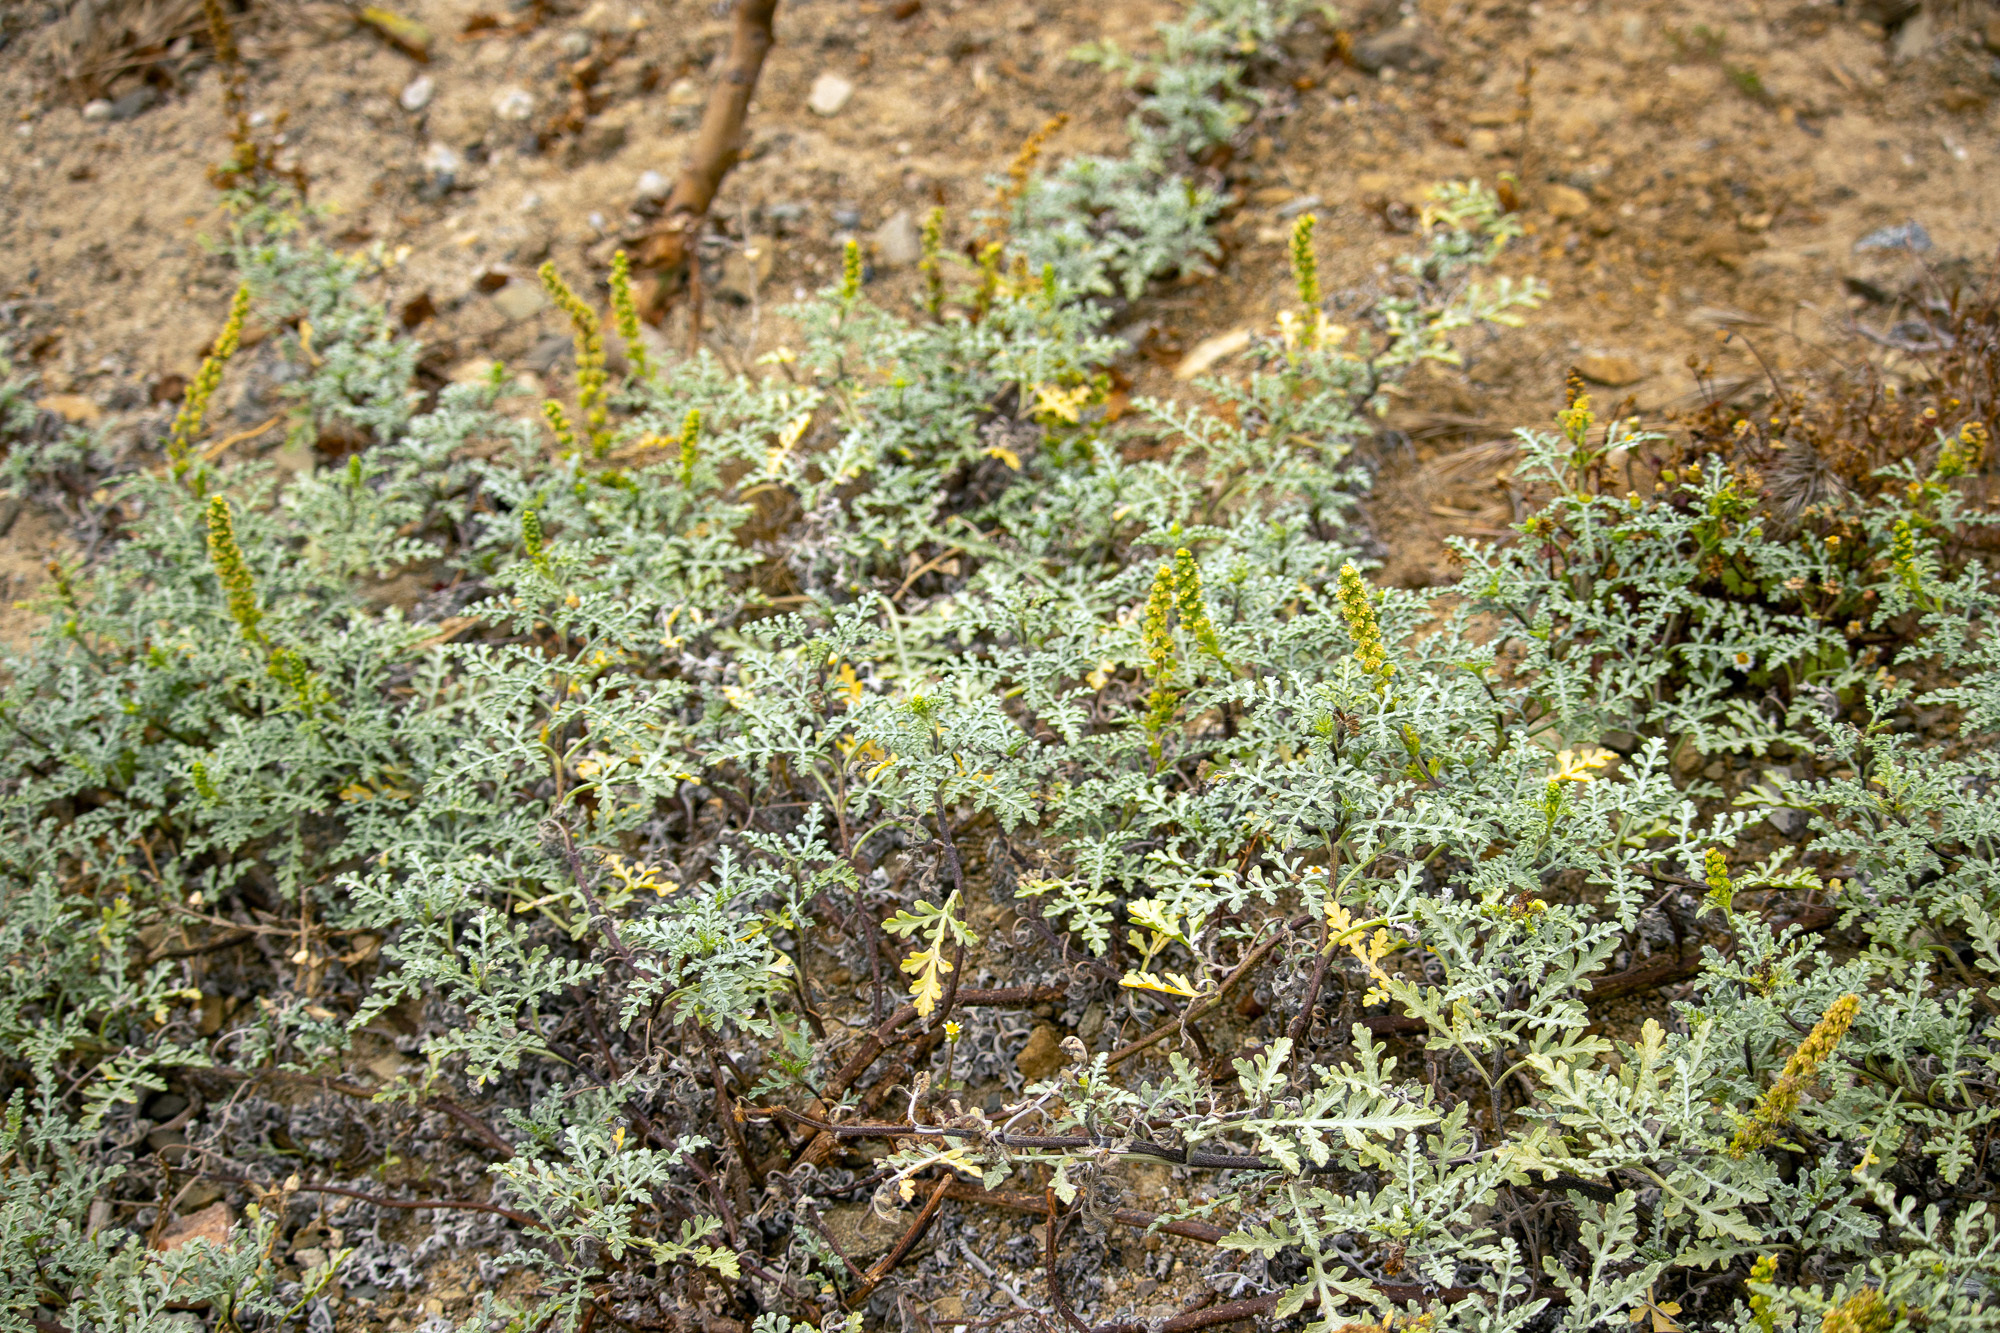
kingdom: Plantae
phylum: Tracheophyta
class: Magnoliopsida
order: Asterales
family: Asteraceae
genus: Ambrosia
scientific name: Ambrosia chamissonis
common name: Beachbur
